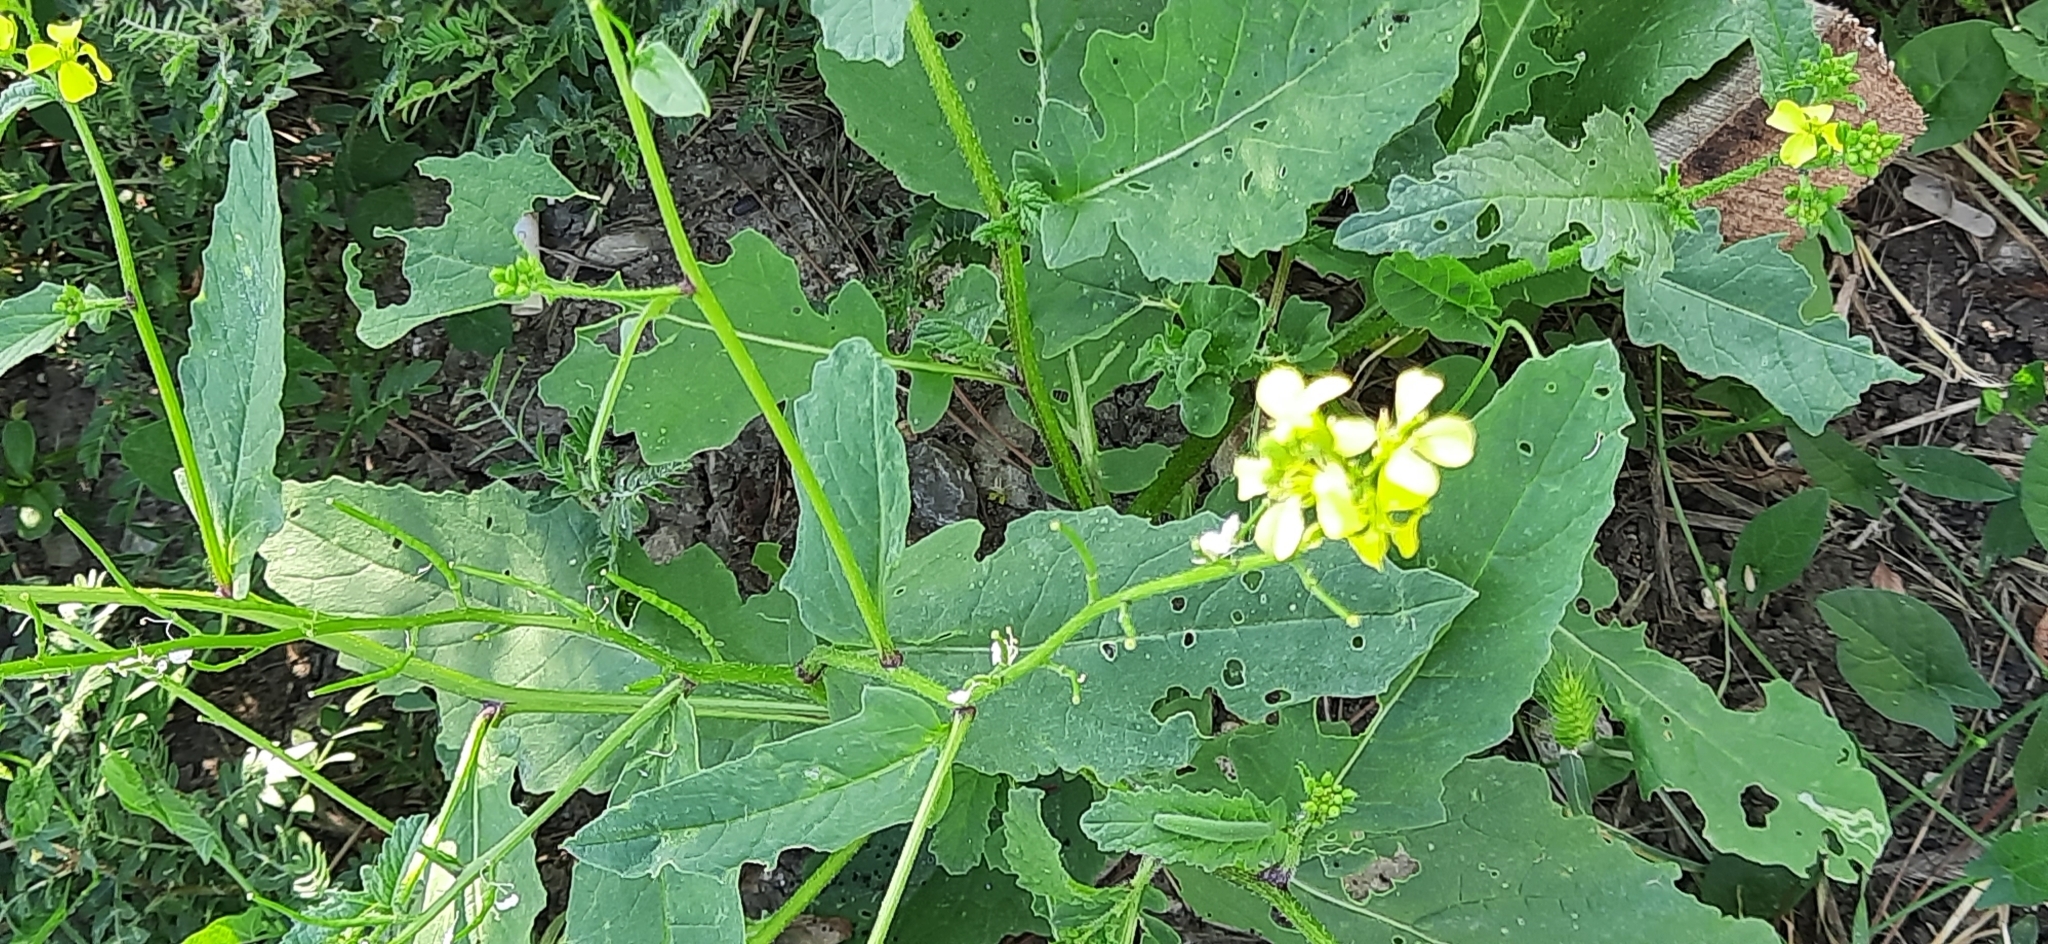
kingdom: Plantae
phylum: Tracheophyta
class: Magnoliopsida
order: Brassicales
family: Brassicaceae
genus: Sinapis
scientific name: Sinapis arvensis
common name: Charlock
